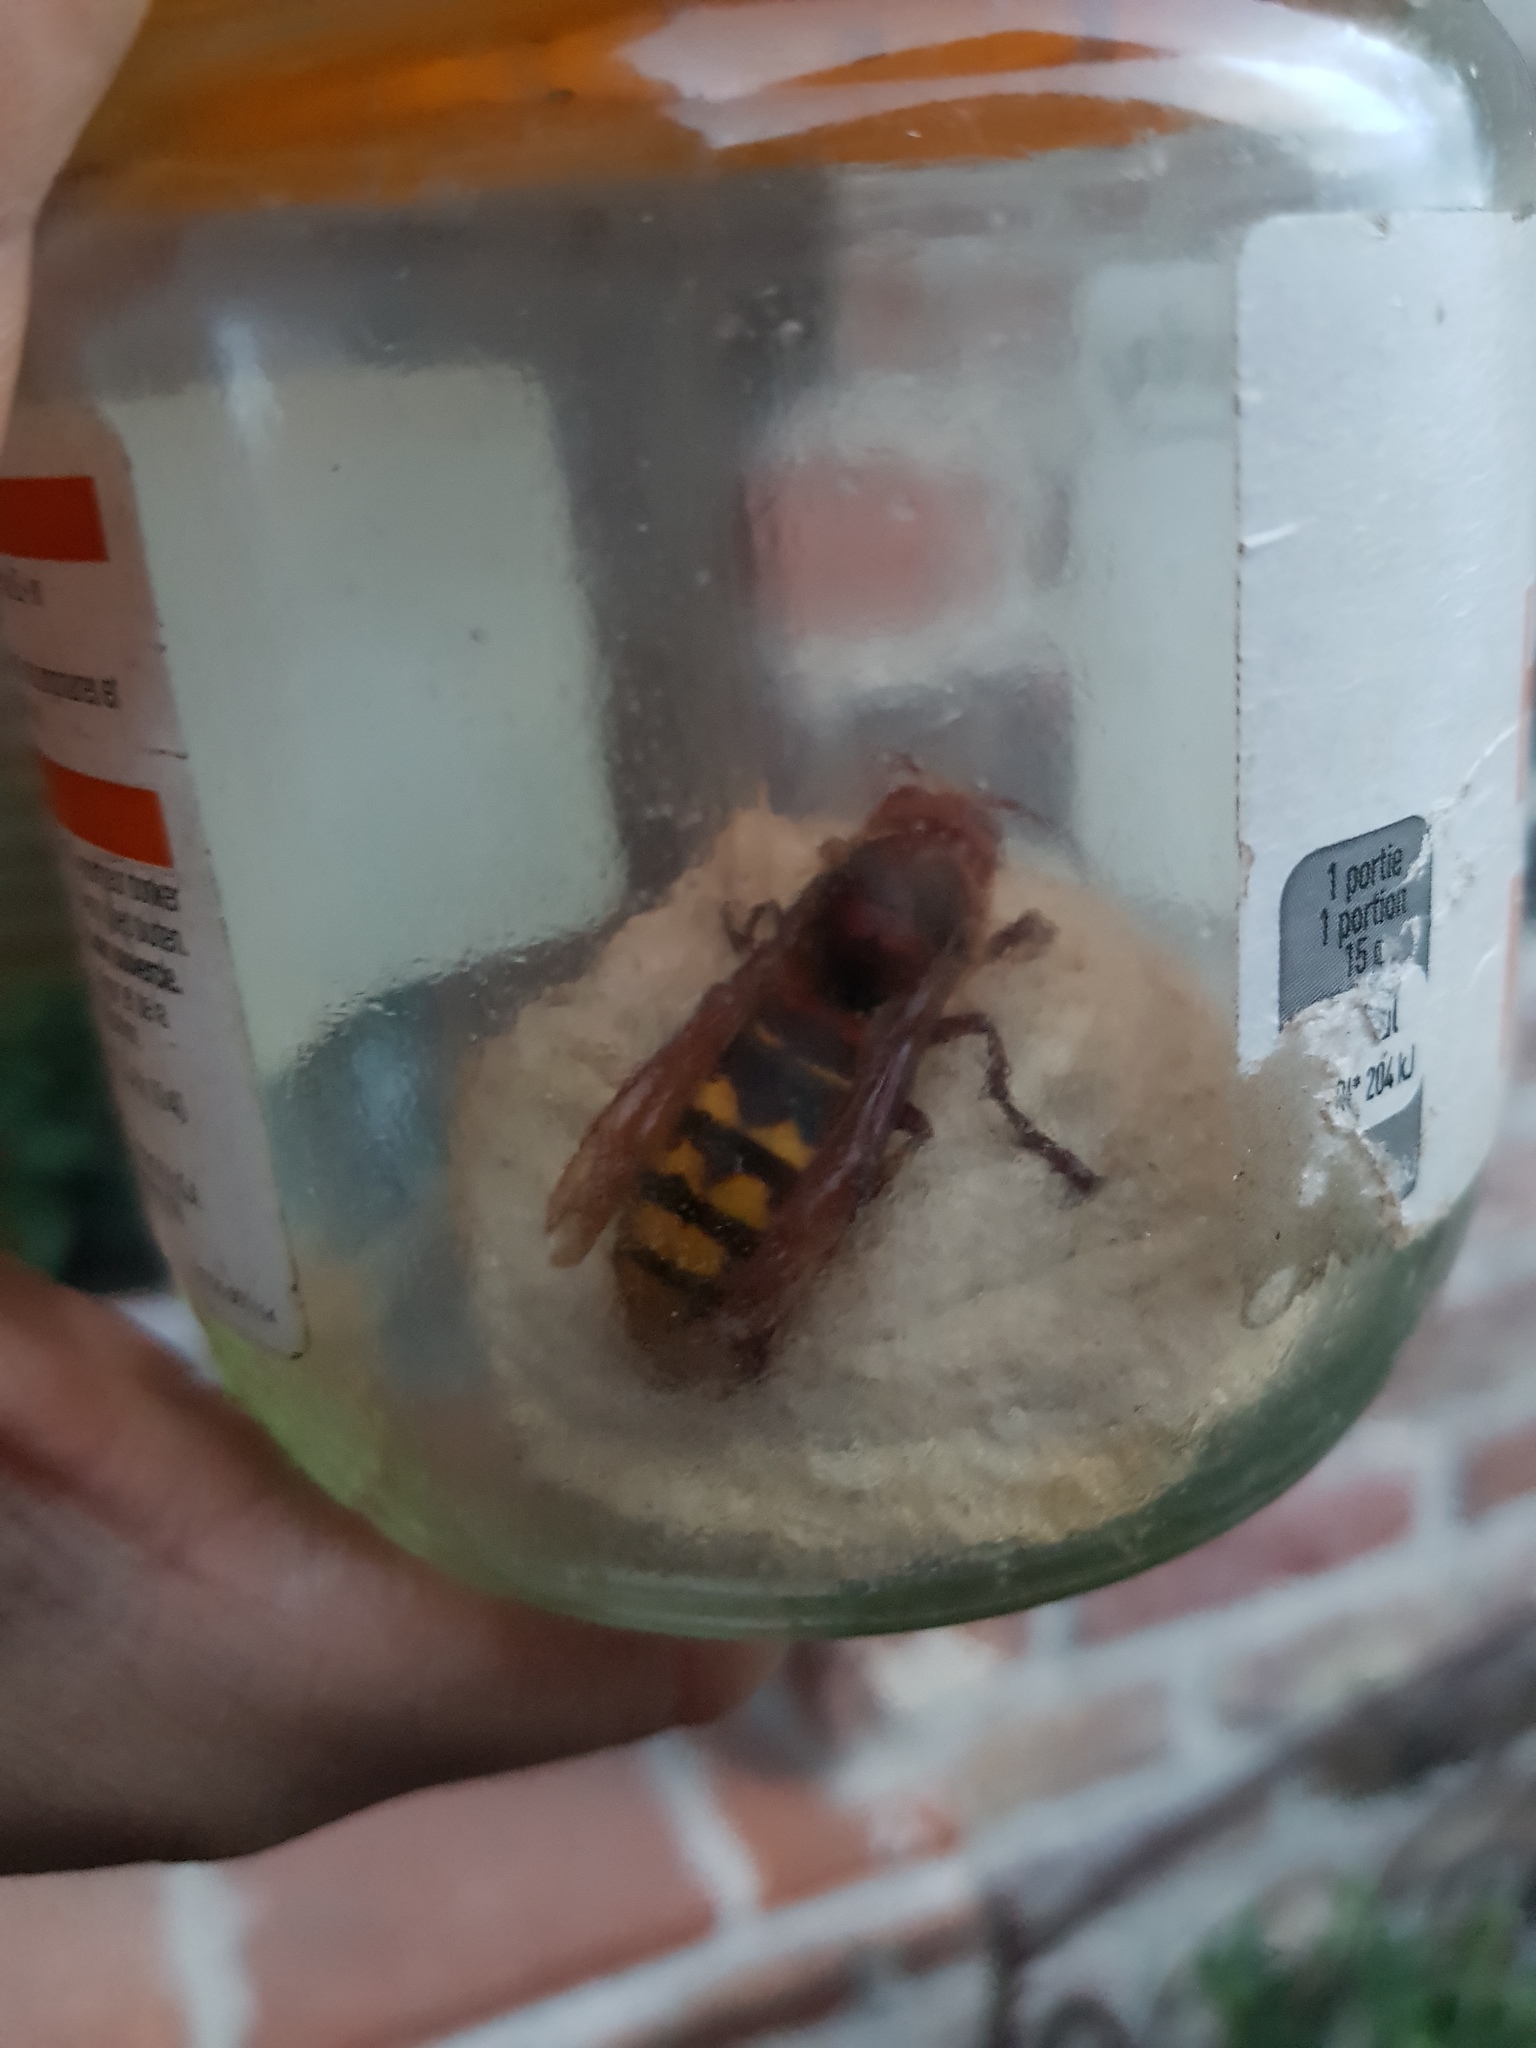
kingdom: Animalia
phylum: Arthropoda
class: Insecta
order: Hymenoptera
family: Vespidae
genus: Vespa
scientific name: Vespa crabro
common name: Hornet
